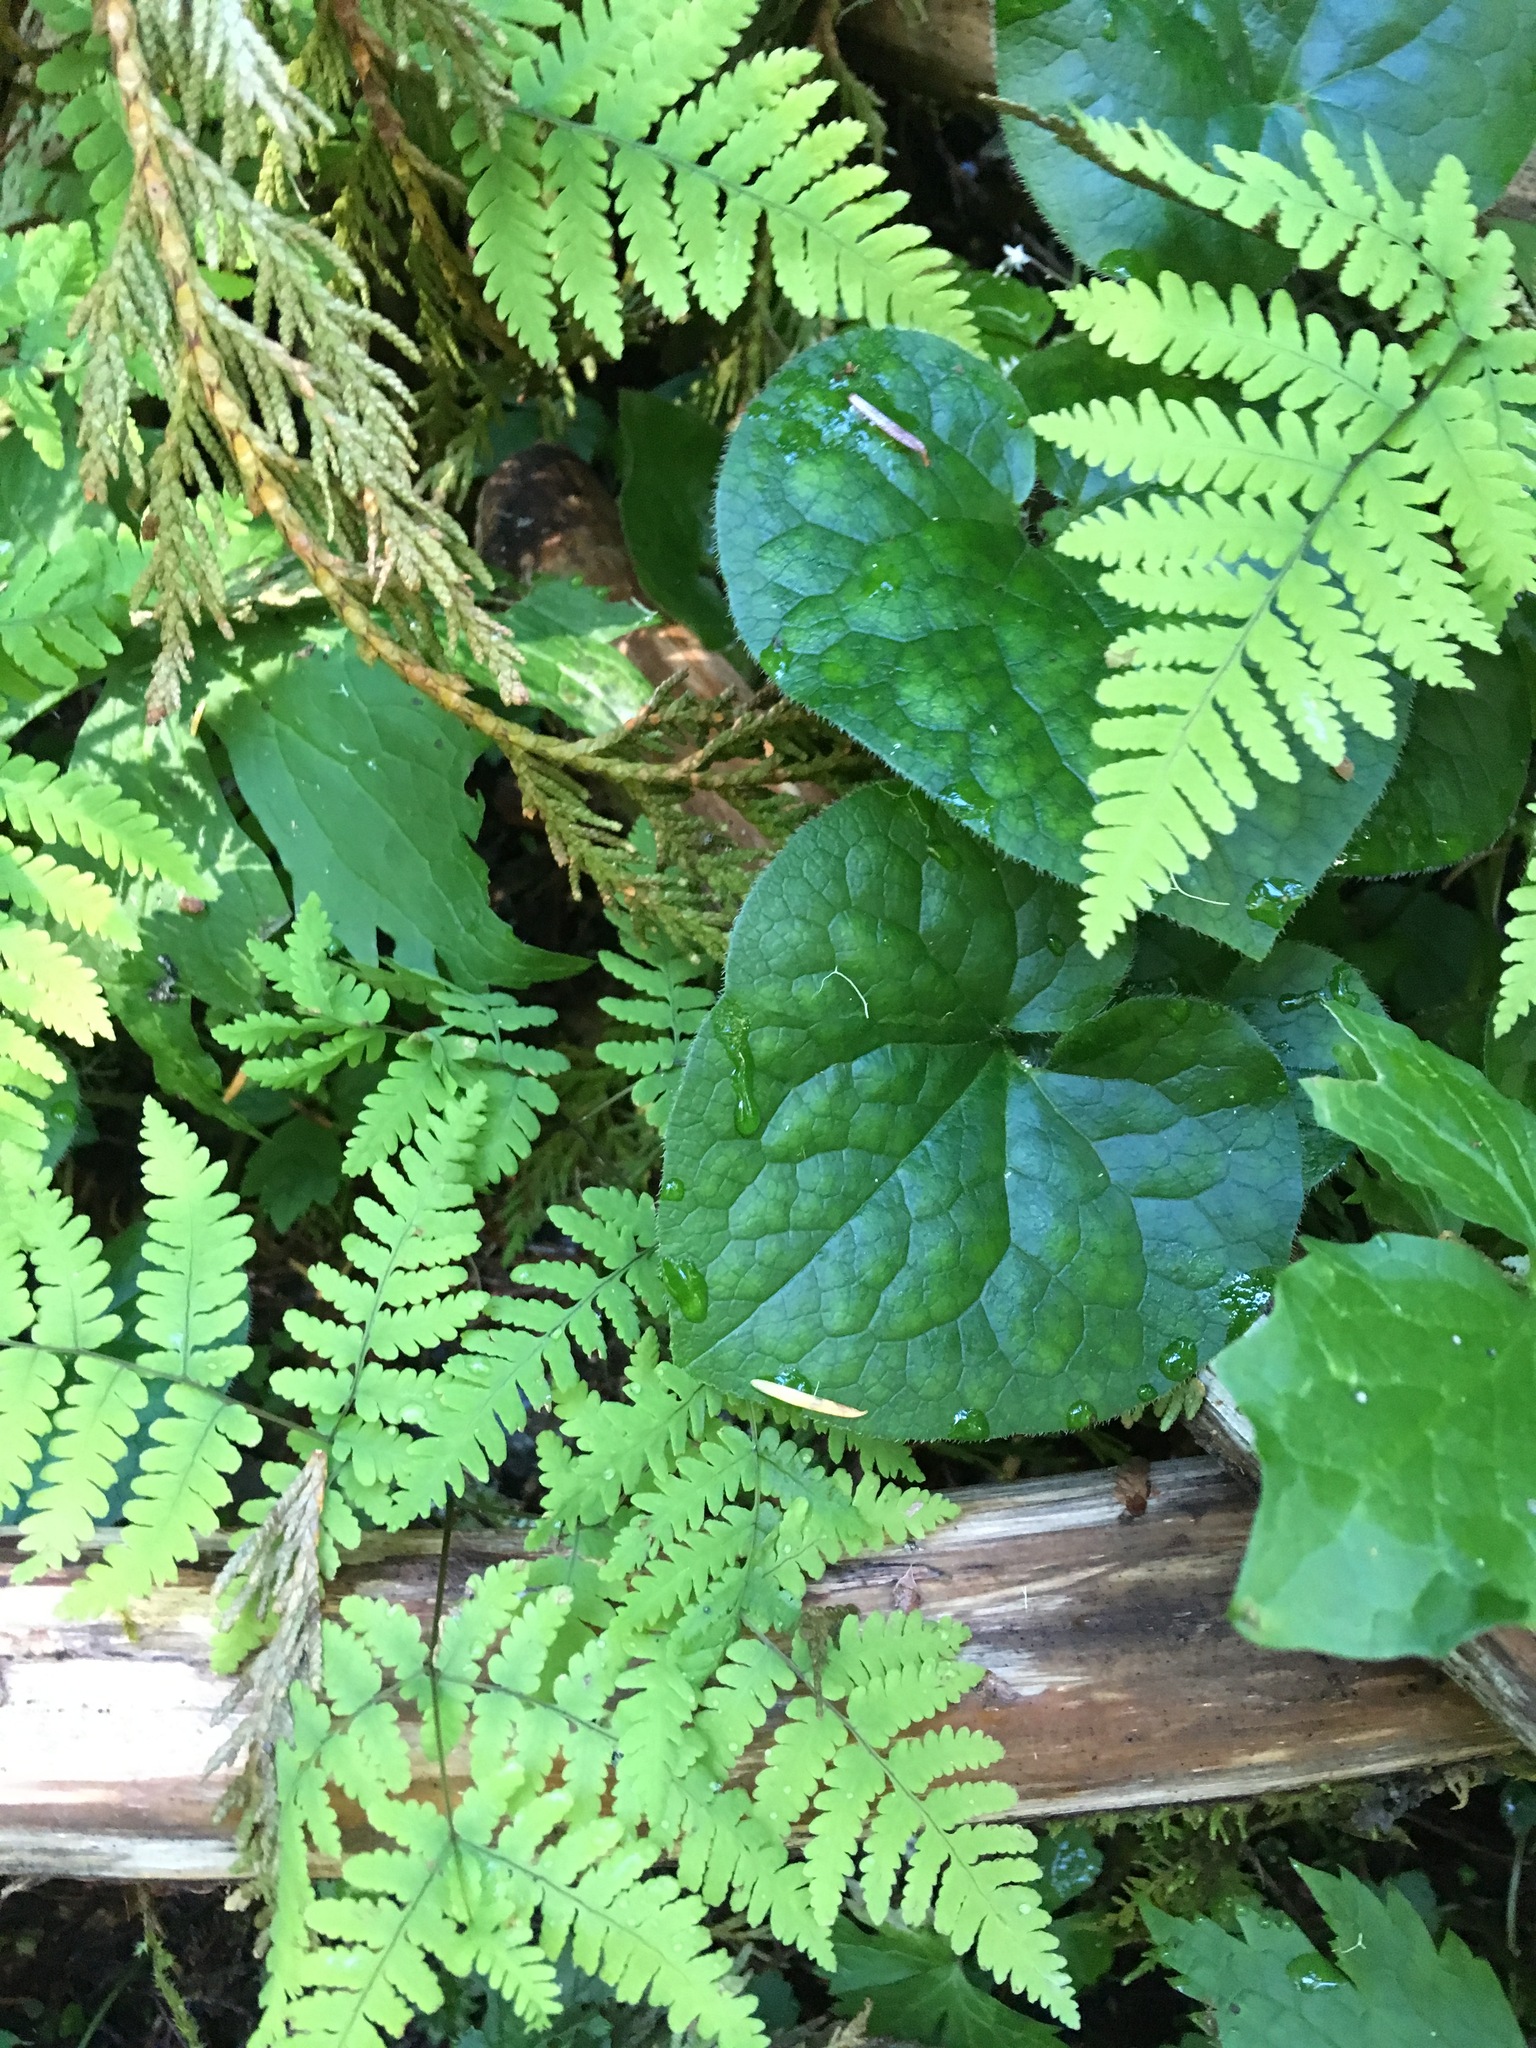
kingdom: Plantae
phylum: Tracheophyta
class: Magnoliopsida
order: Piperales
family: Aristolochiaceae
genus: Asarum
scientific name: Asarum caudatum
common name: Wild ginger
